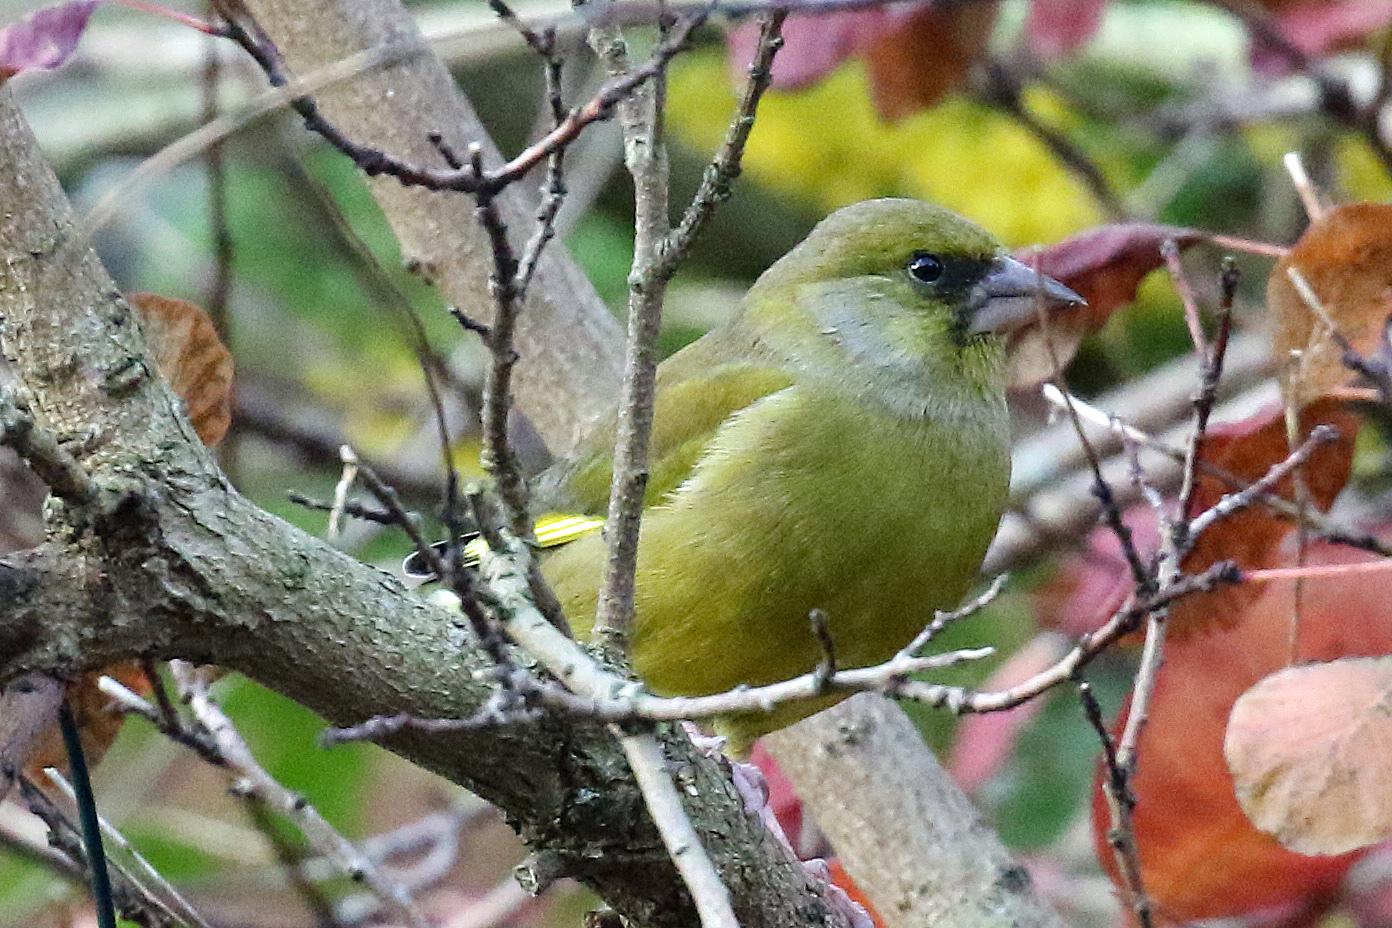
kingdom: Plantae
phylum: Tracheophyta
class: Liliopsida
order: Poales
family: Poaceae
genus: Chloris
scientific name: Chloris chloris
